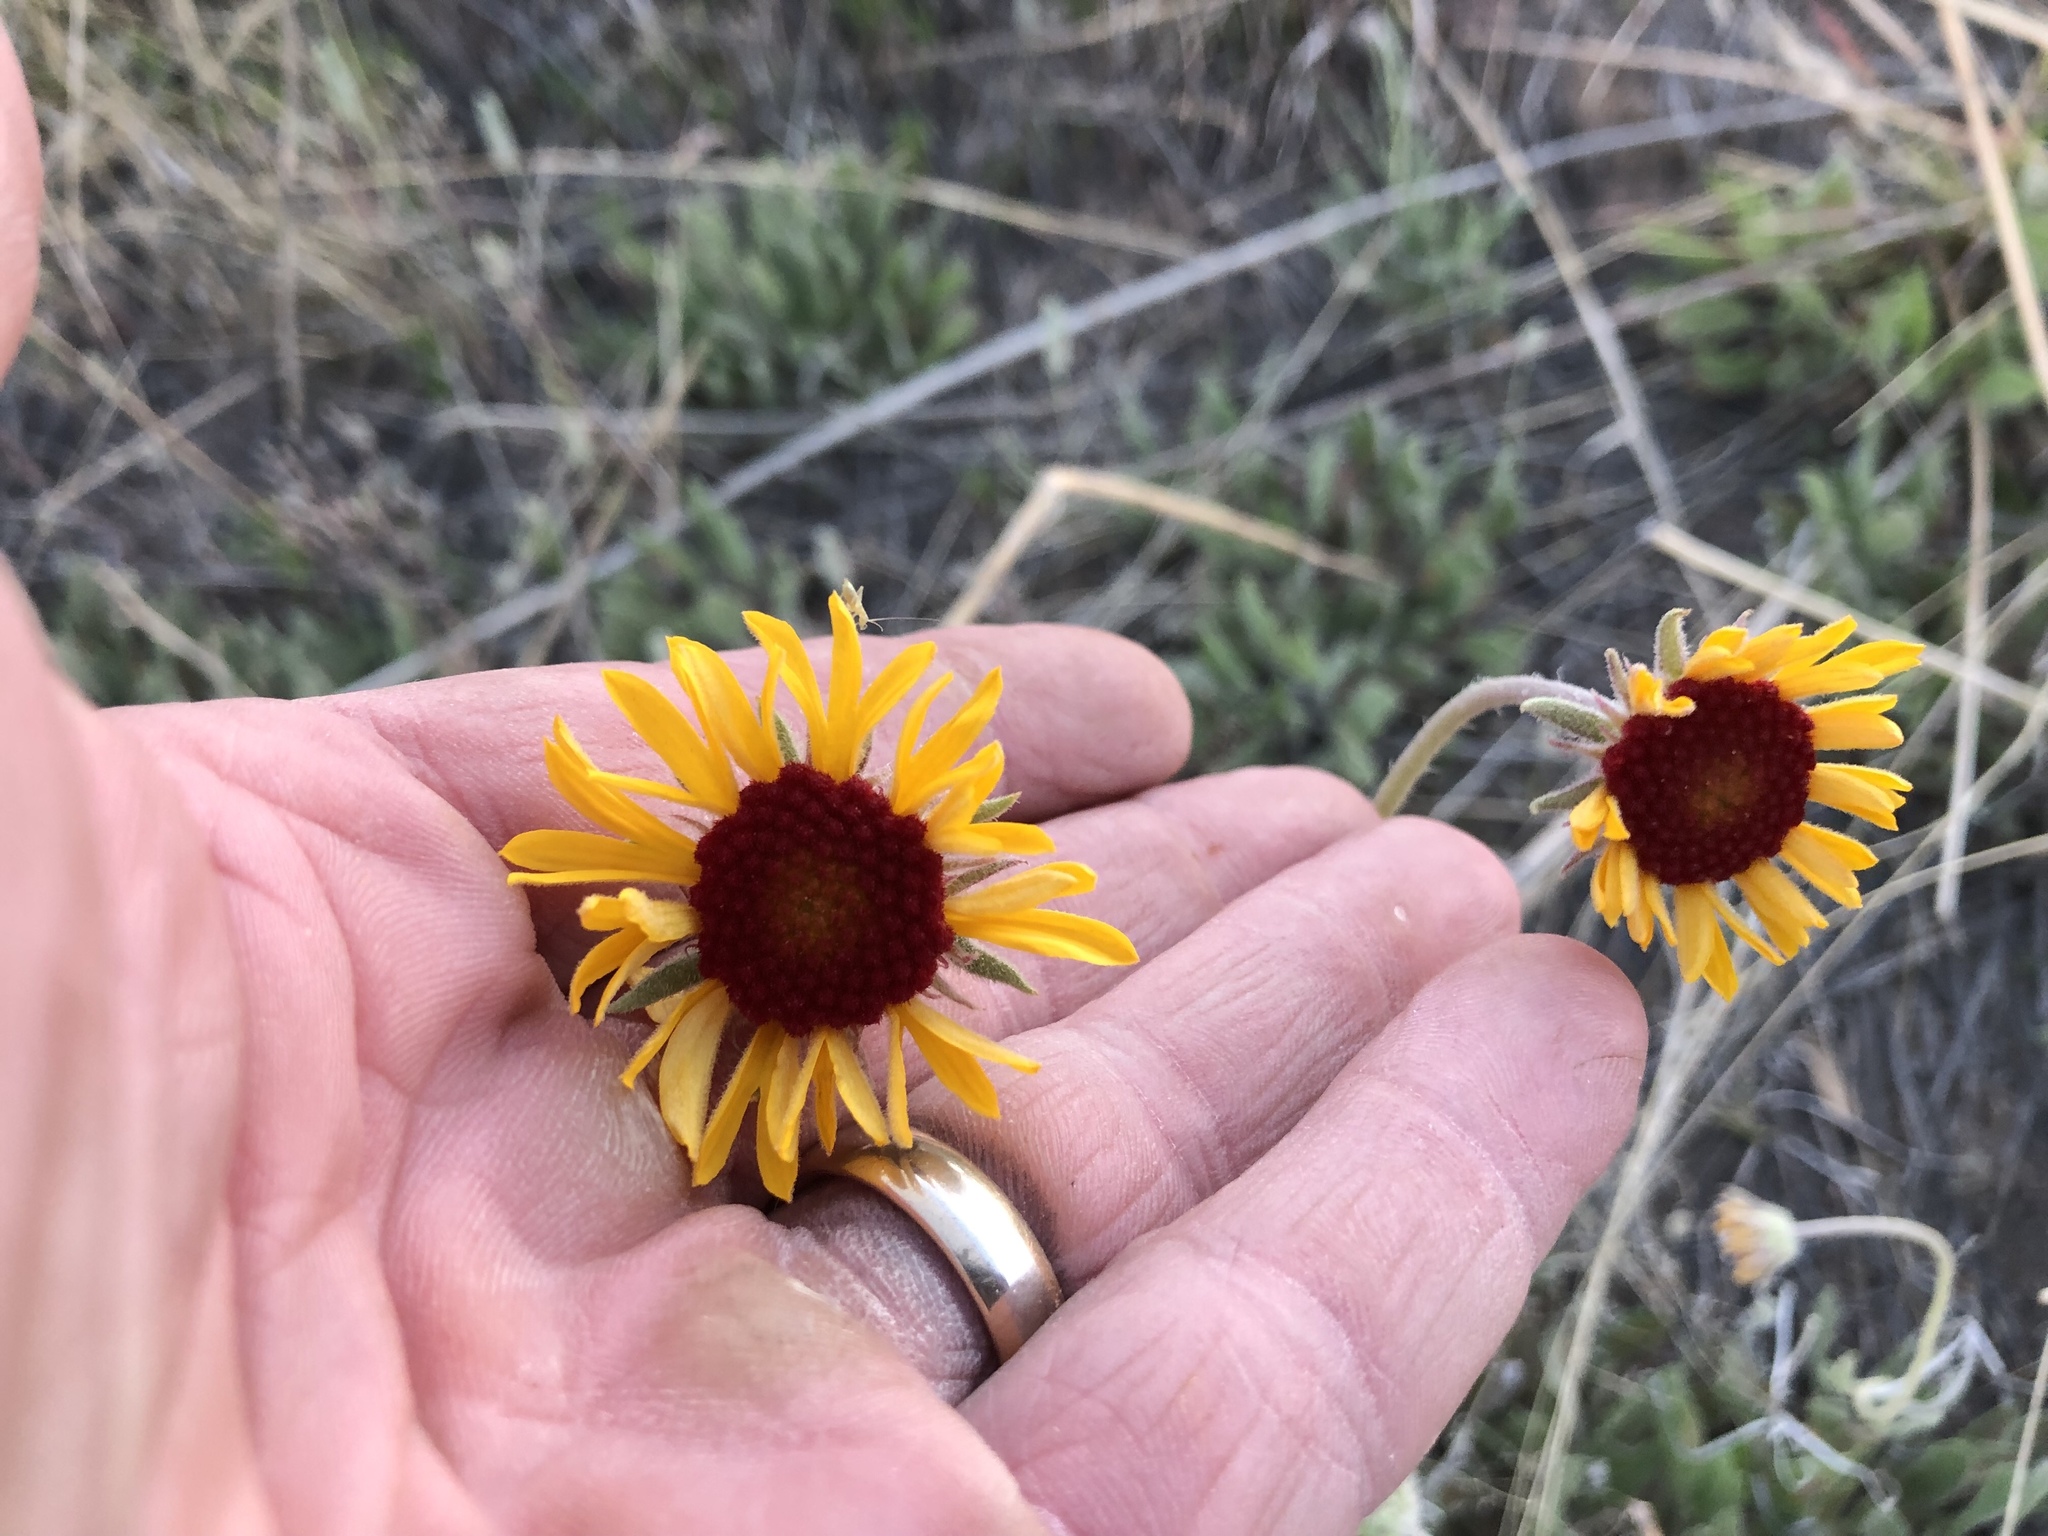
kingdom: Plantae
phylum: Tracheophyta
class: Magnoliopsida
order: Asterales
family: Asteraceae
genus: Gaillardia
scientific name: Gaillardia pinnatifida
